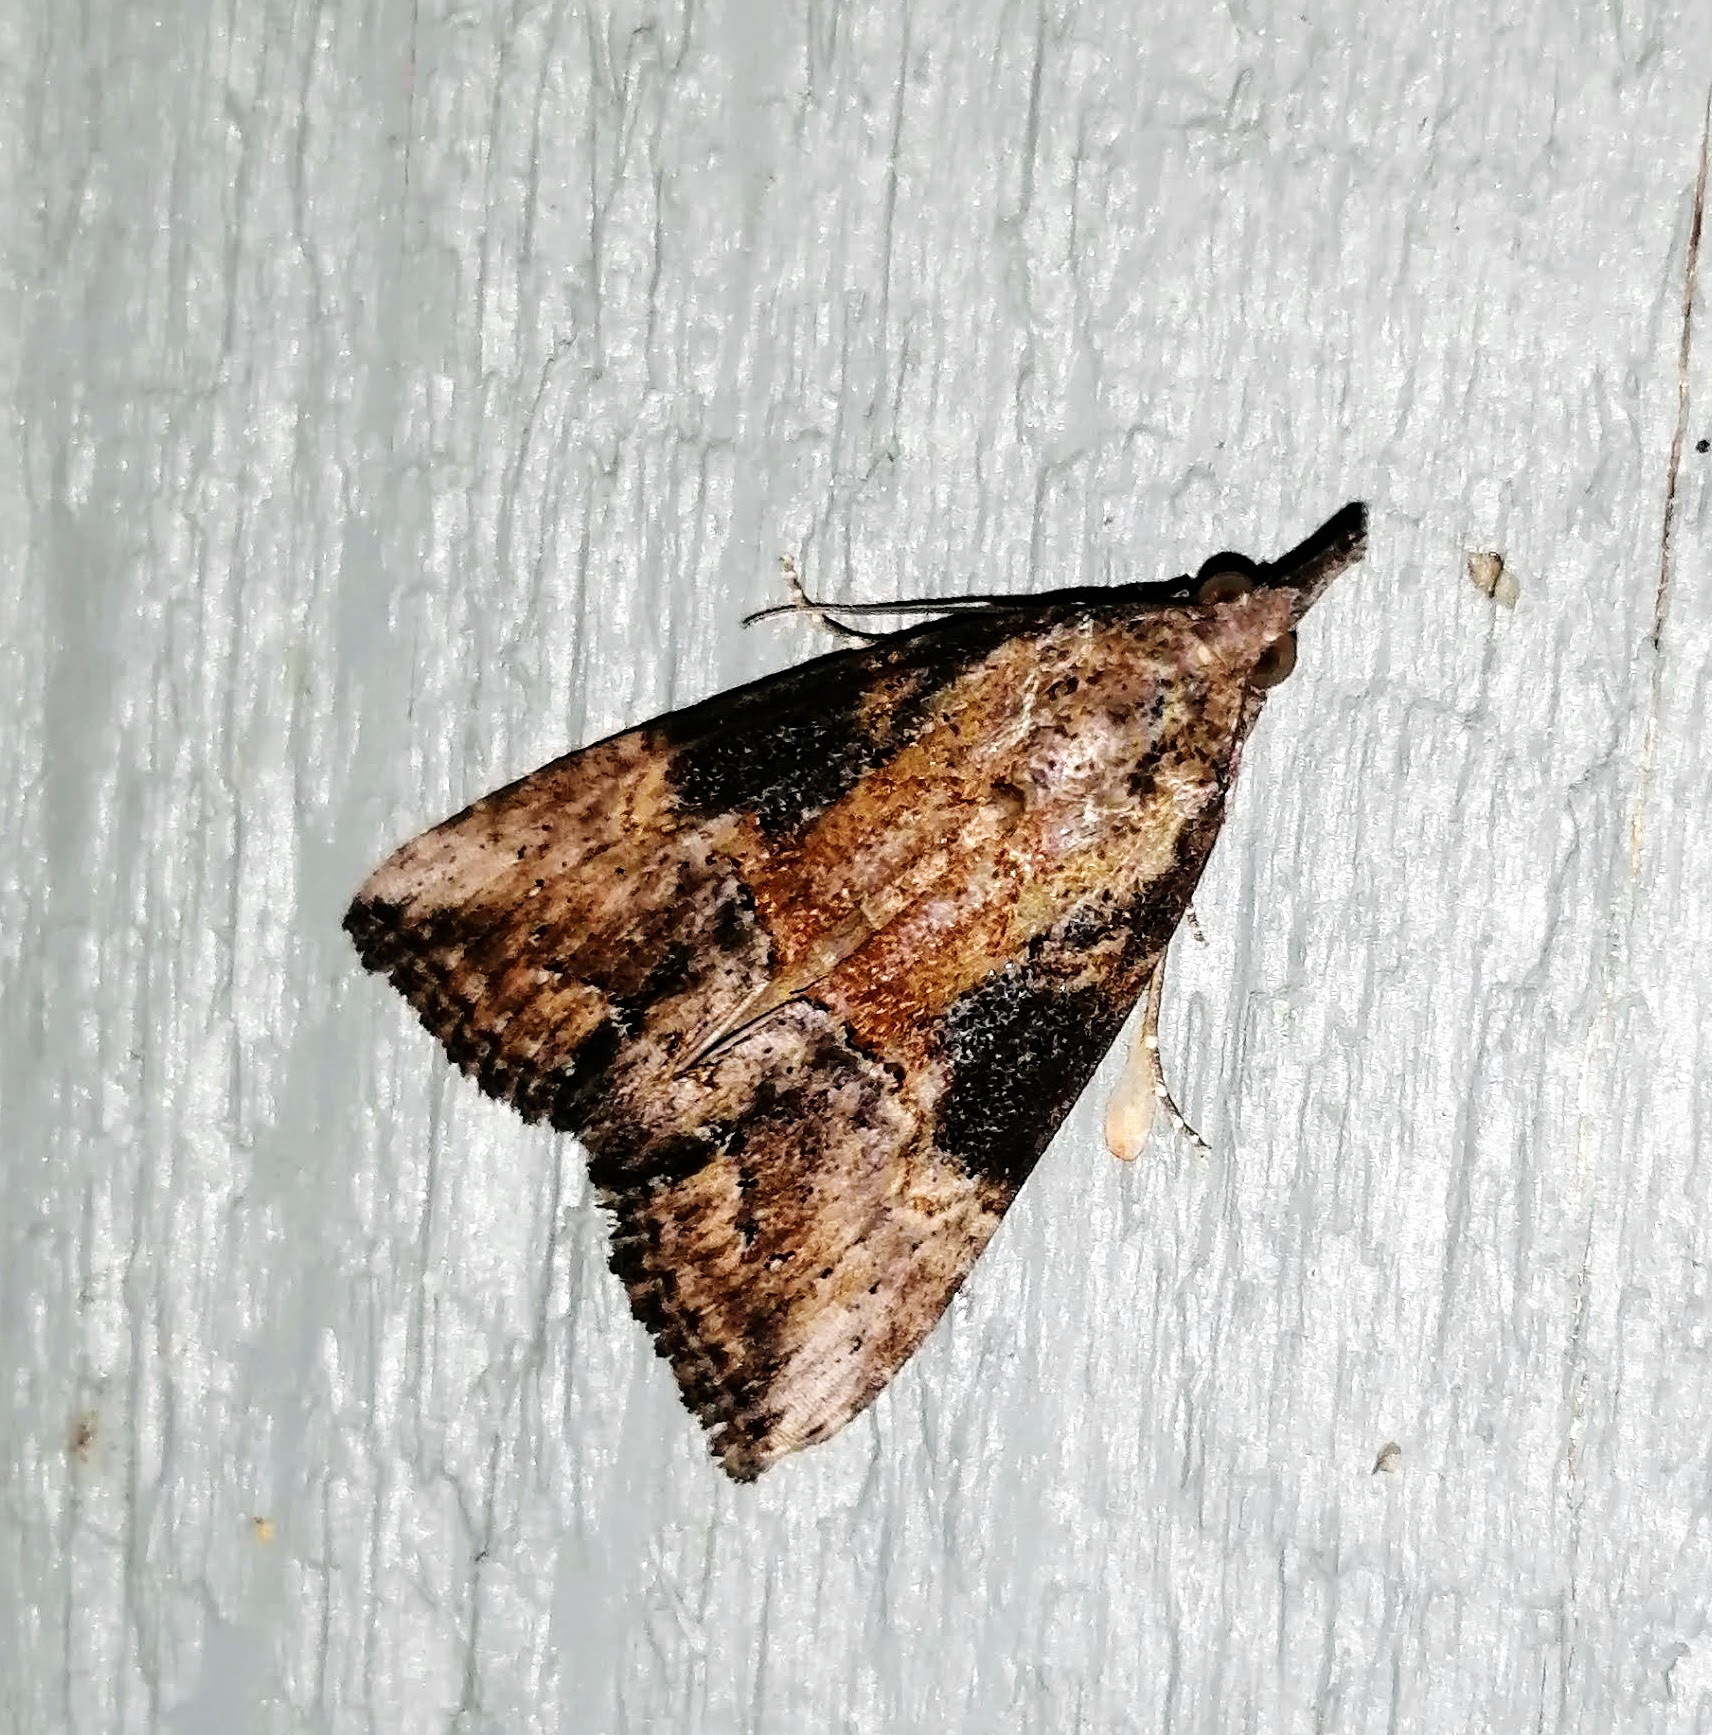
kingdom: Animalia
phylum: Arthropoda
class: Insecta
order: Lepidoptera
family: Erebidae
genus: Hypena
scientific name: Hypena scabra
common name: Green cloverworm
